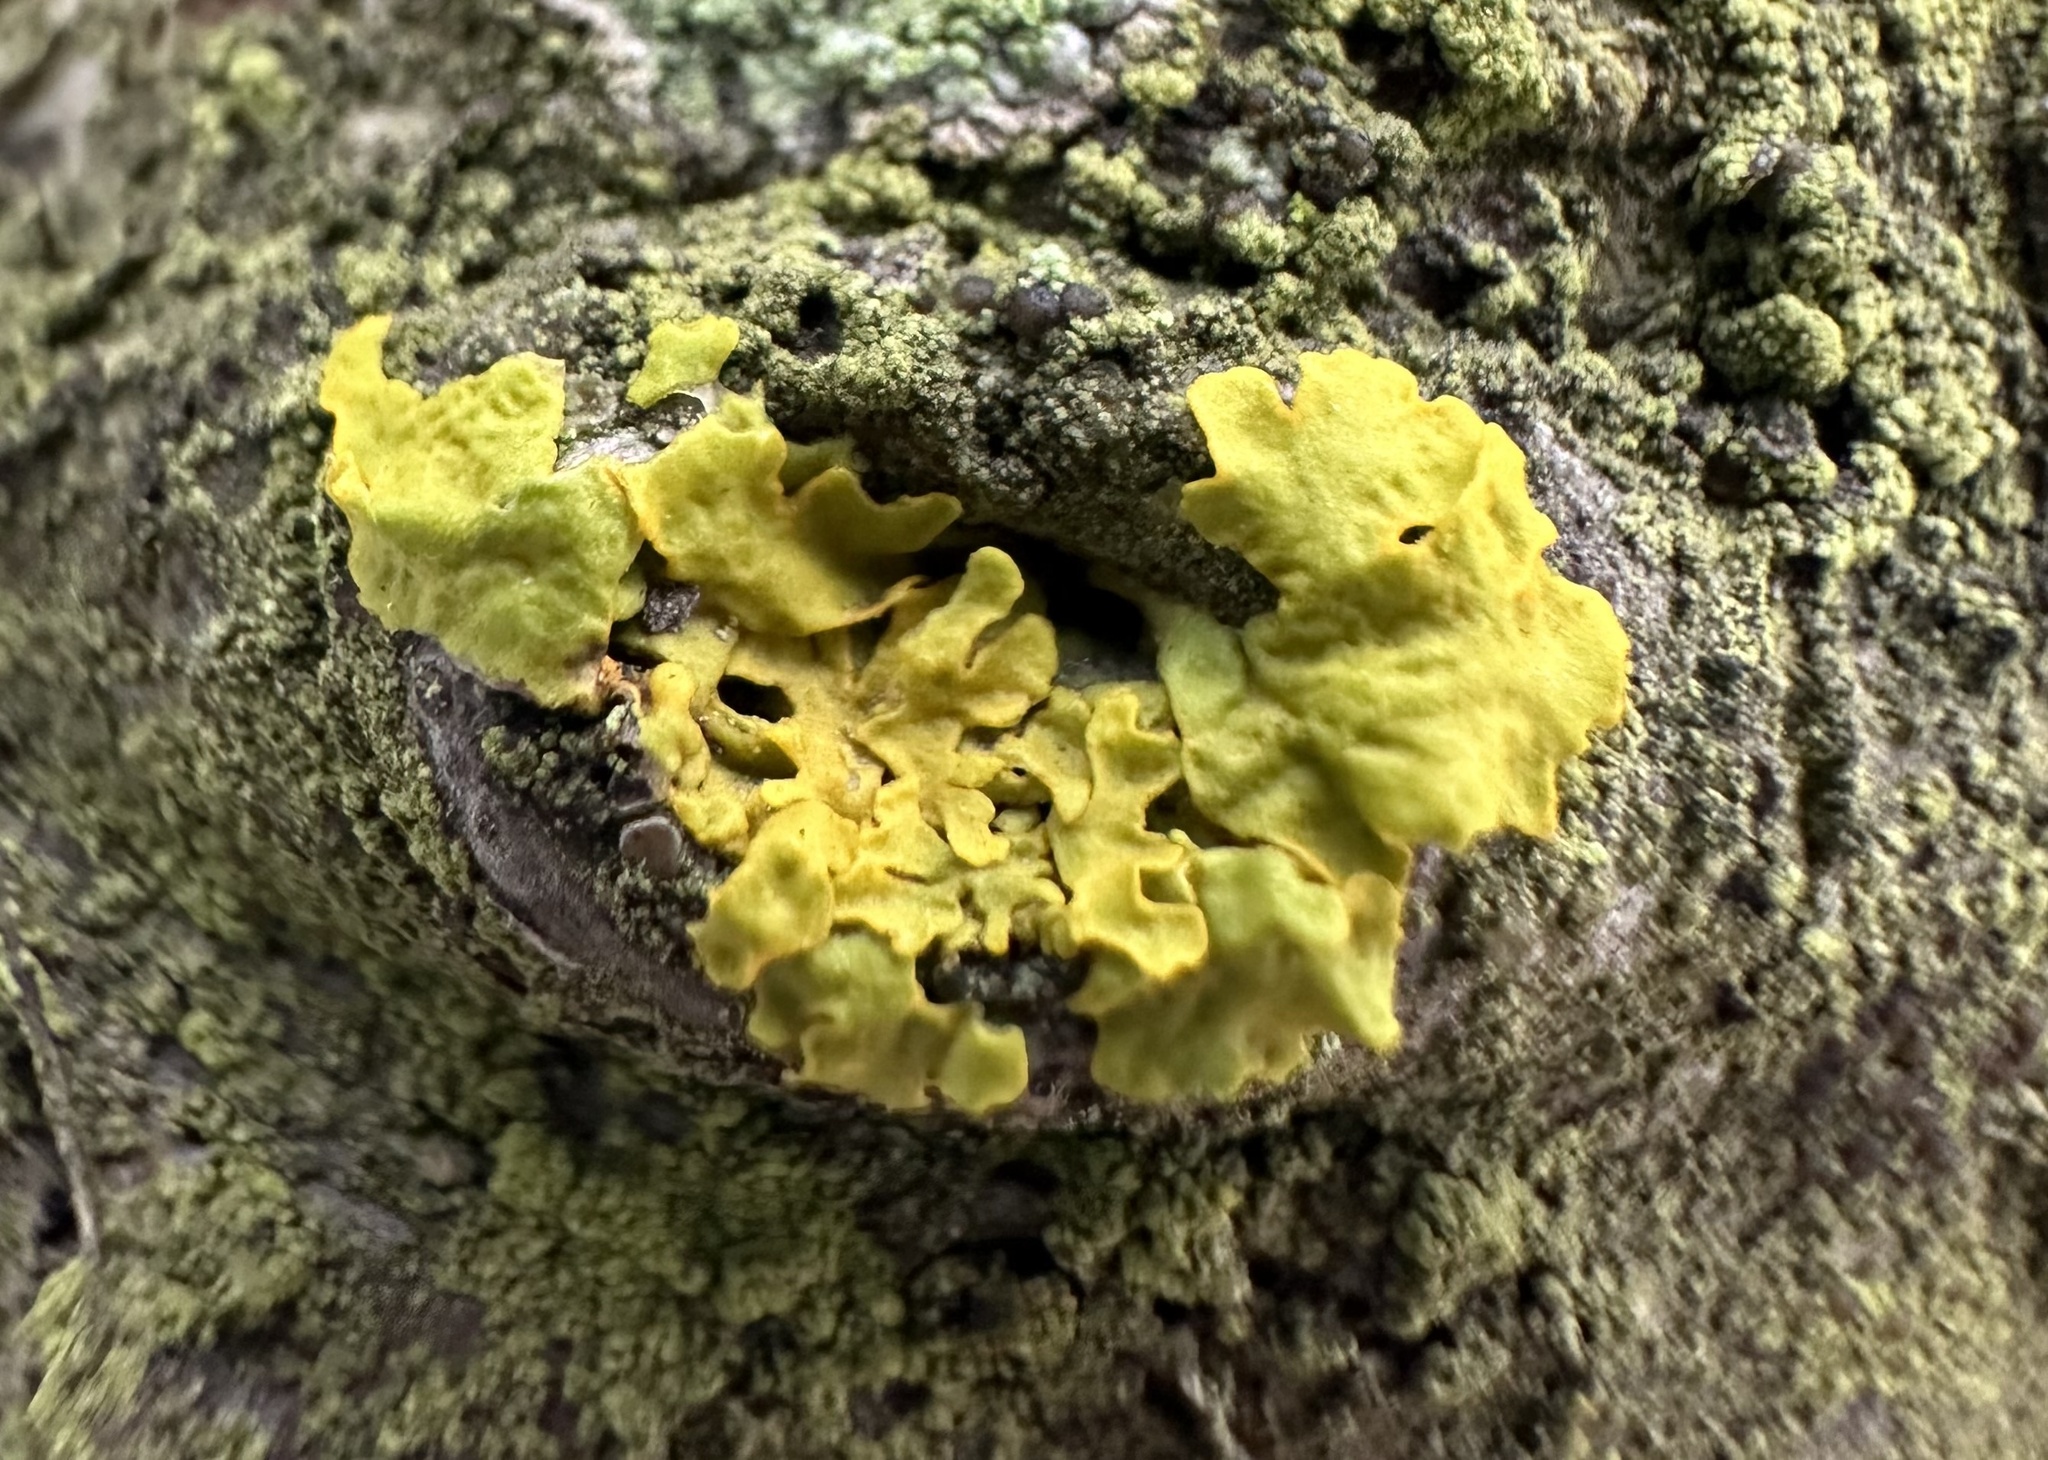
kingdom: Fungi
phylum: Ascomycota
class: Lecanoromycetes
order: Teloschistales
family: Teloschistaceae
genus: Xanthoria
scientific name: Xanthoria parietina
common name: Common orange lichen
